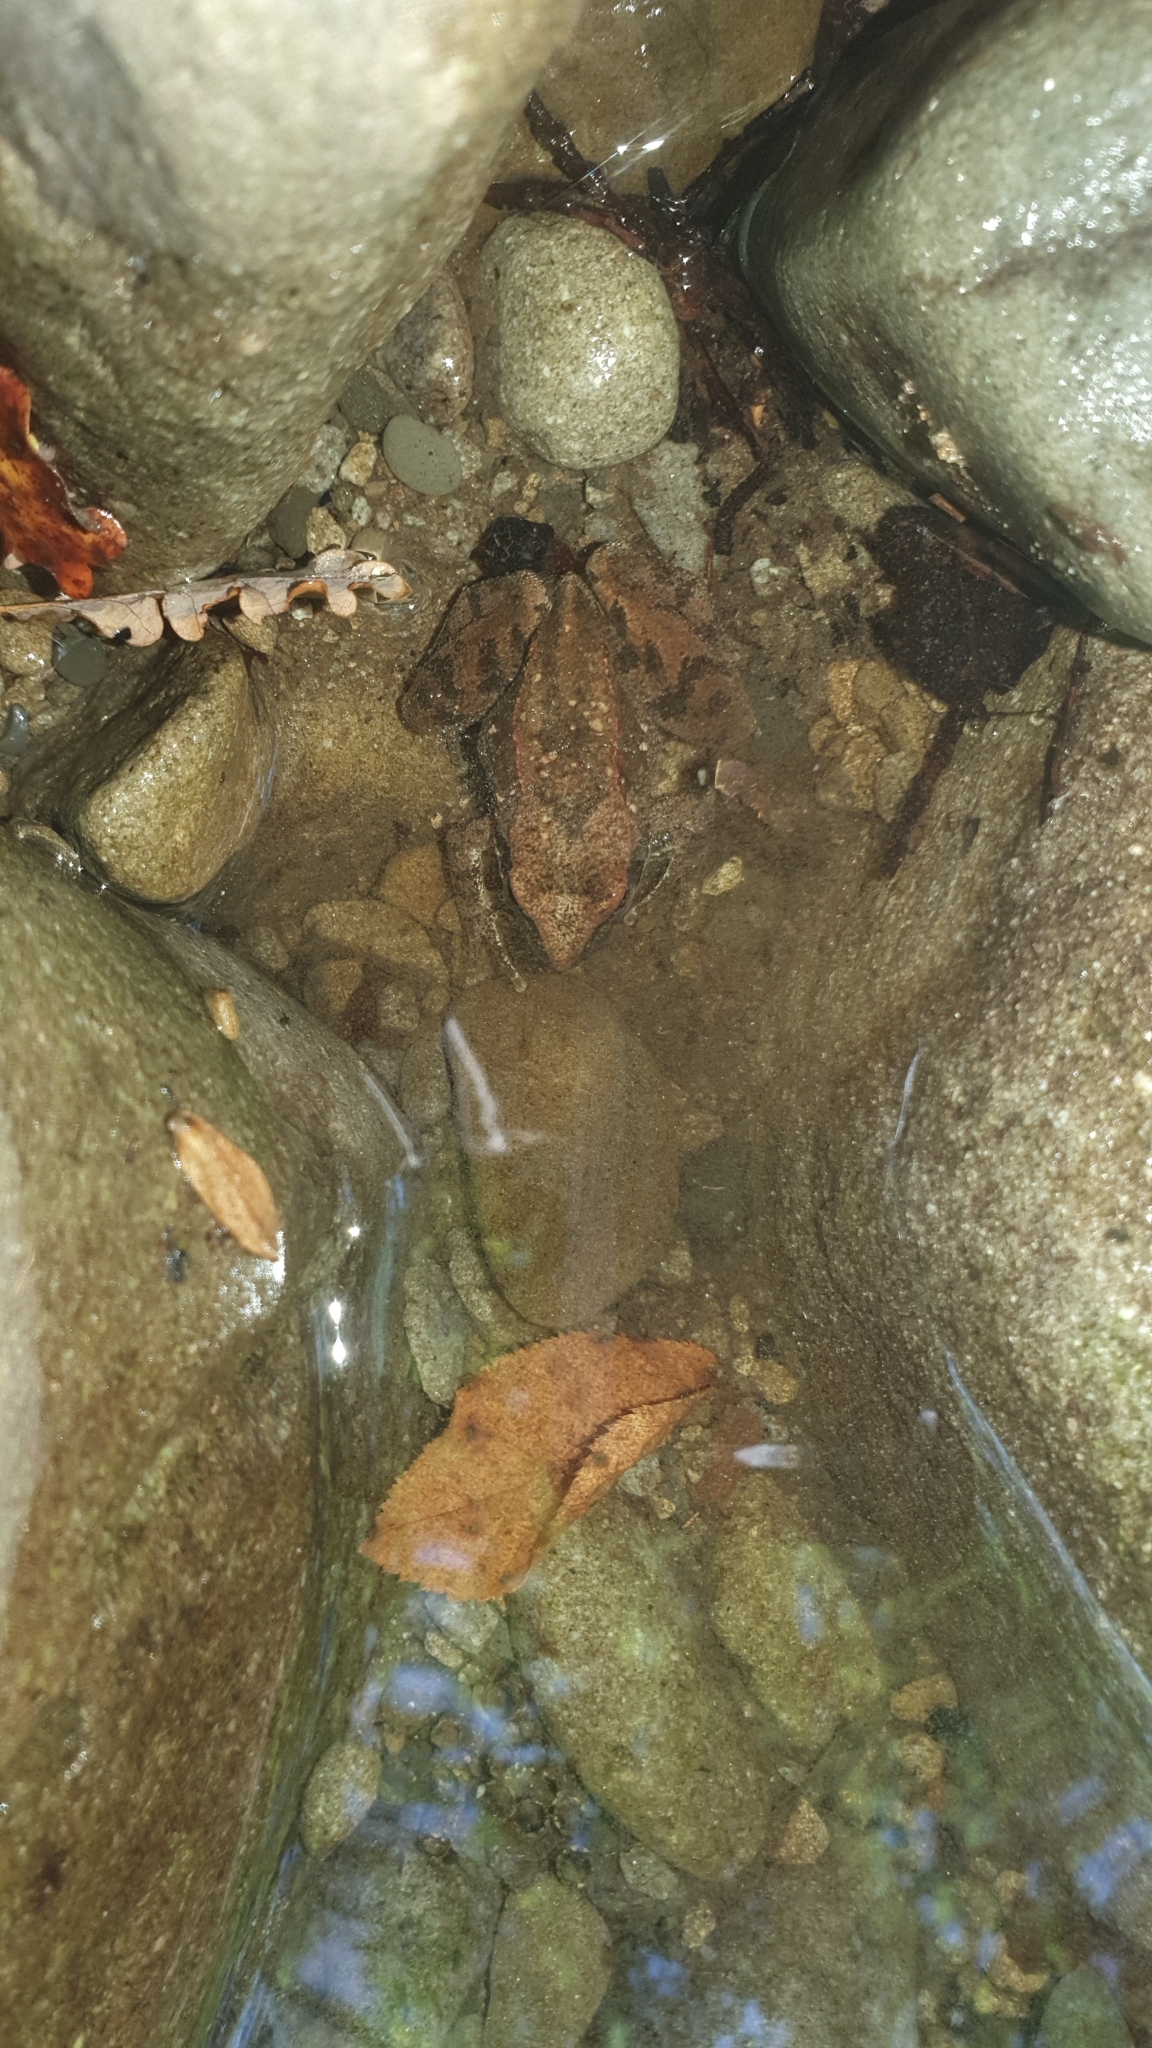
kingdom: Animalia
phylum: Chordata
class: Amphibia
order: Anura
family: Ranidae
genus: Rana
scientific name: Rana italica
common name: Italian stream frog
